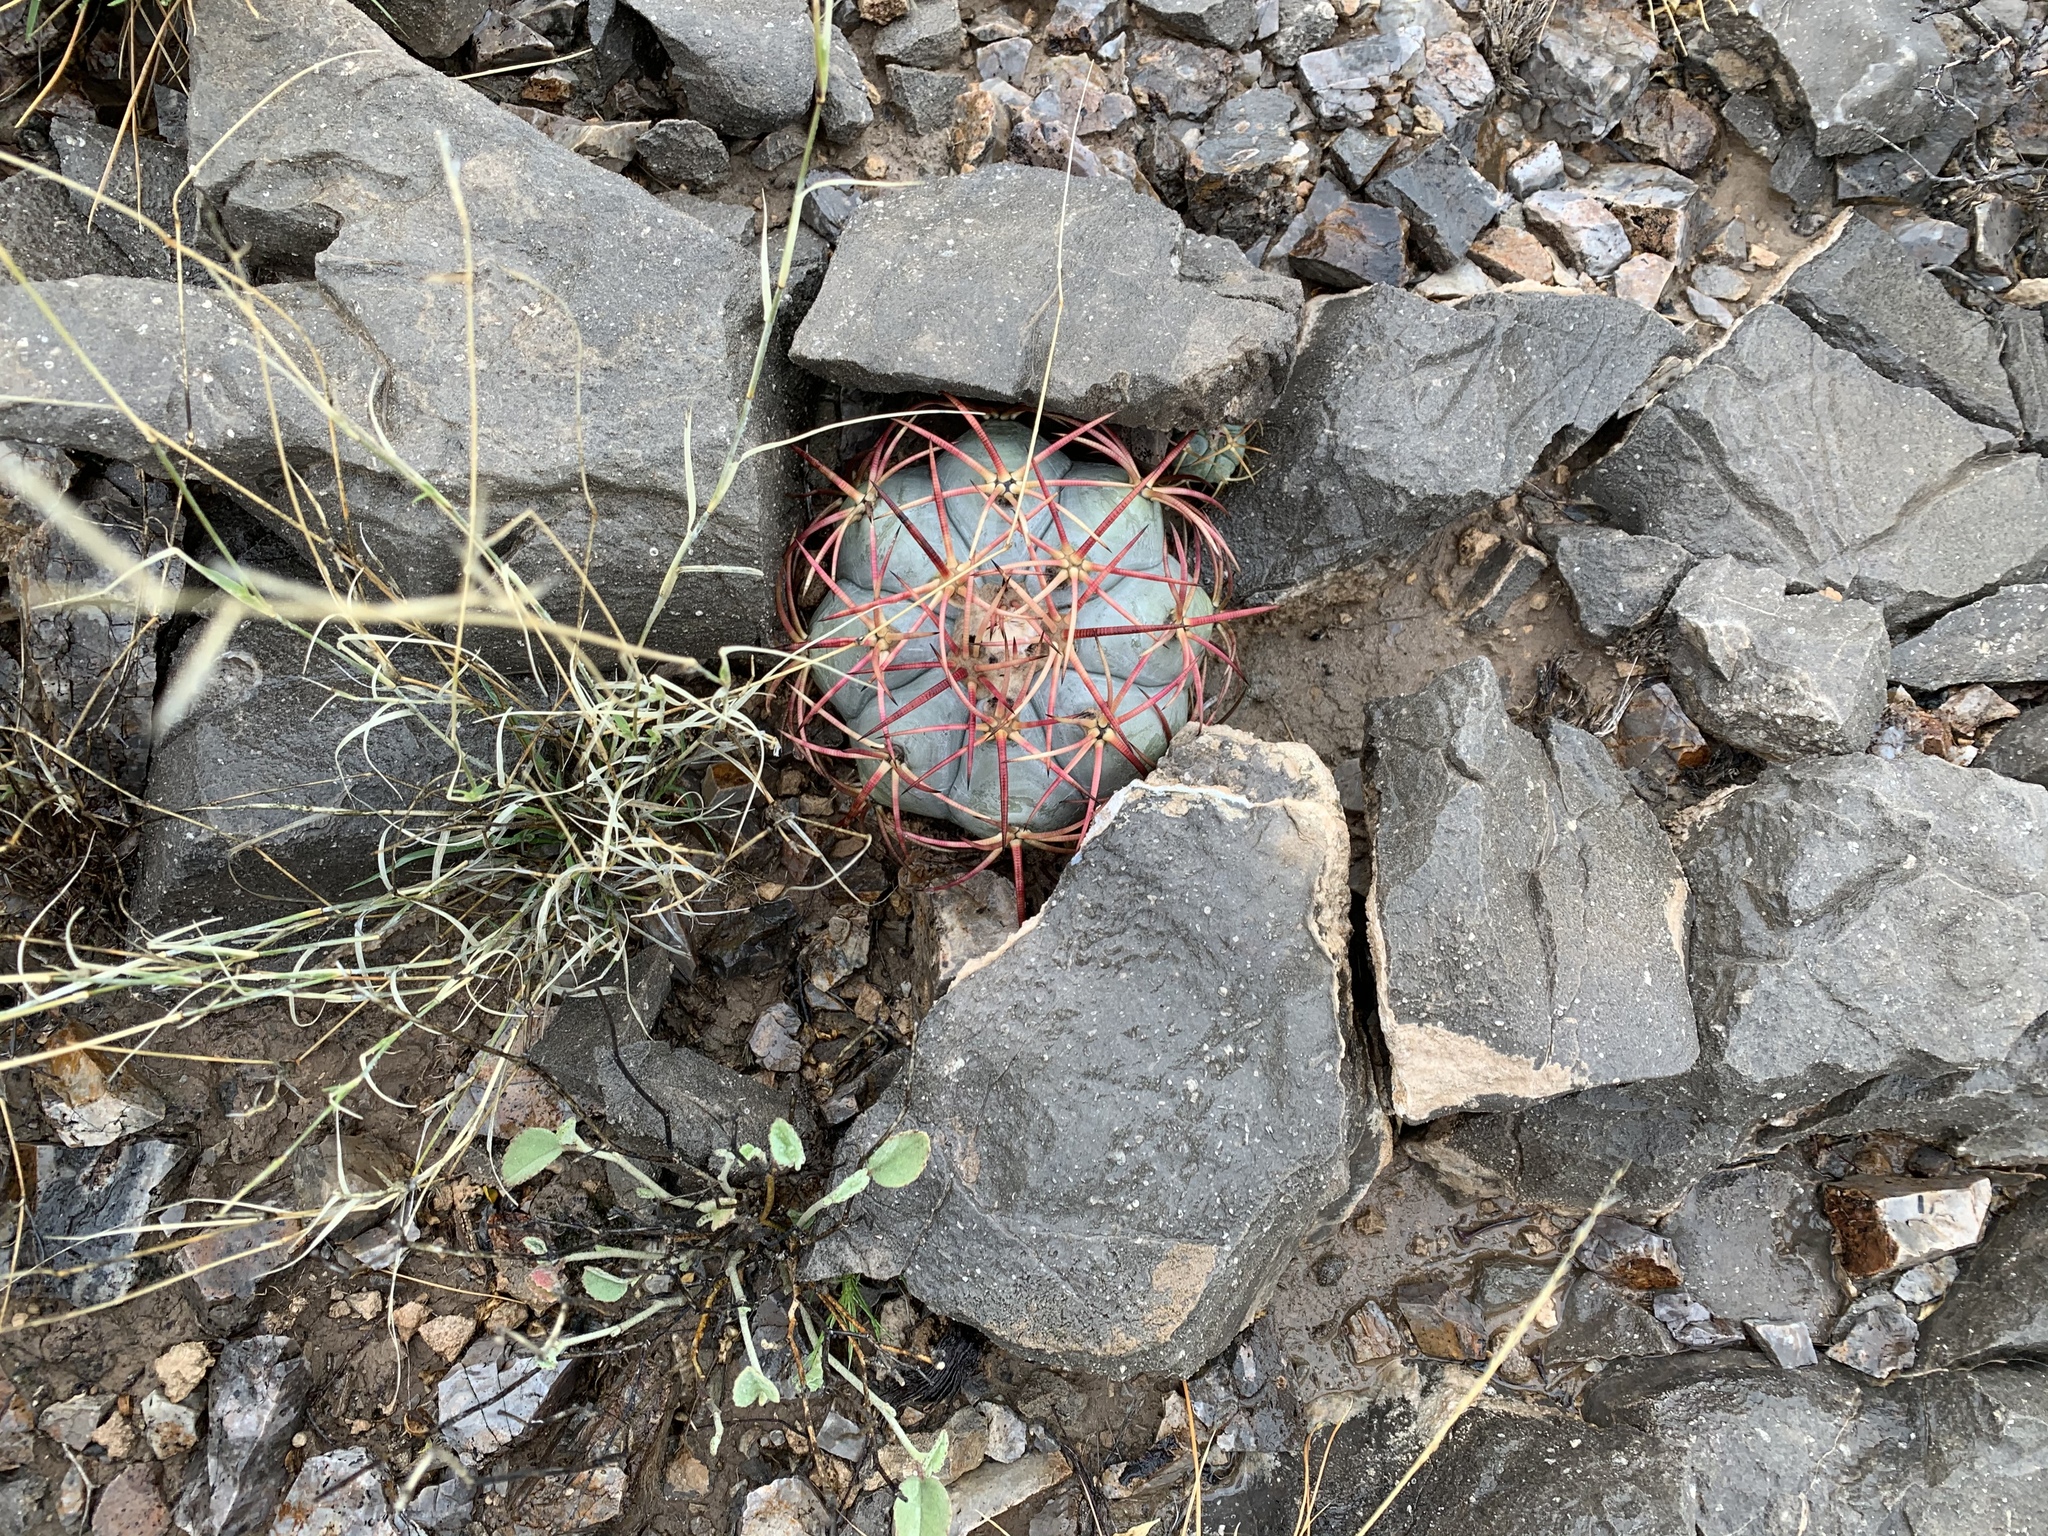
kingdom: Plantae
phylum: Tracheophyta
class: Magnoliopsida
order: Caryophyllales
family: Cactaceae
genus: Echinocactus
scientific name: Echinocactus horizonthalonius
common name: Devilshead
